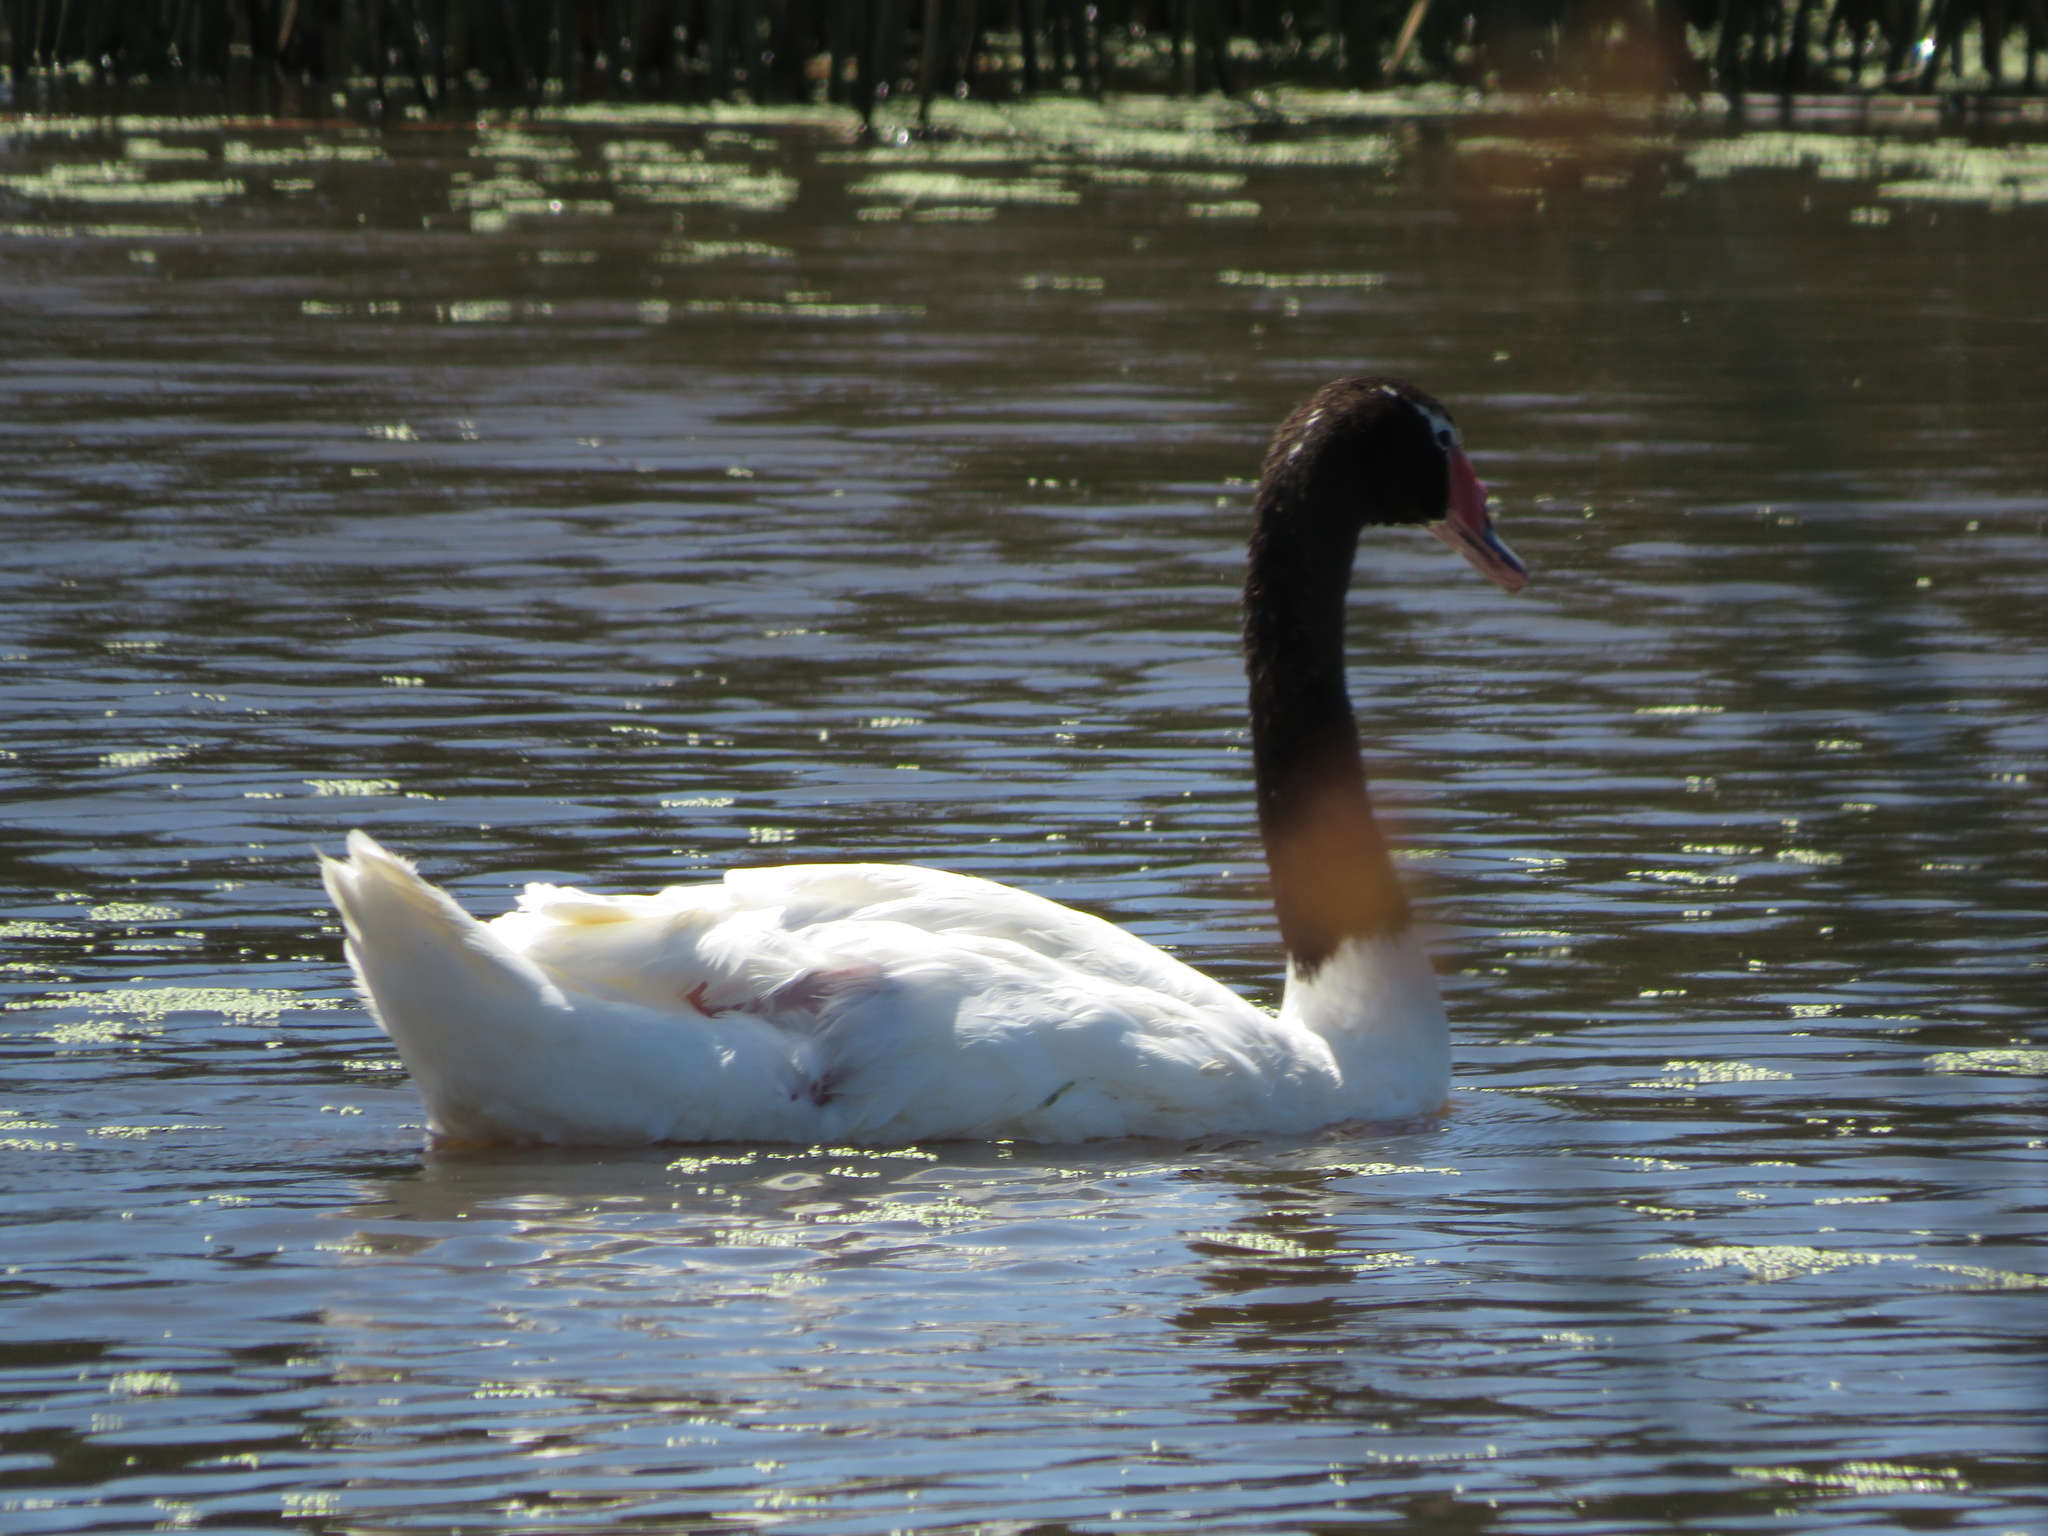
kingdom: Animalia
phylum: Chordata
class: Aves
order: Anseriformes
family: Anatidae
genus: Cygnus
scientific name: Cygnus melancoryphus
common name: Black-necked swan
